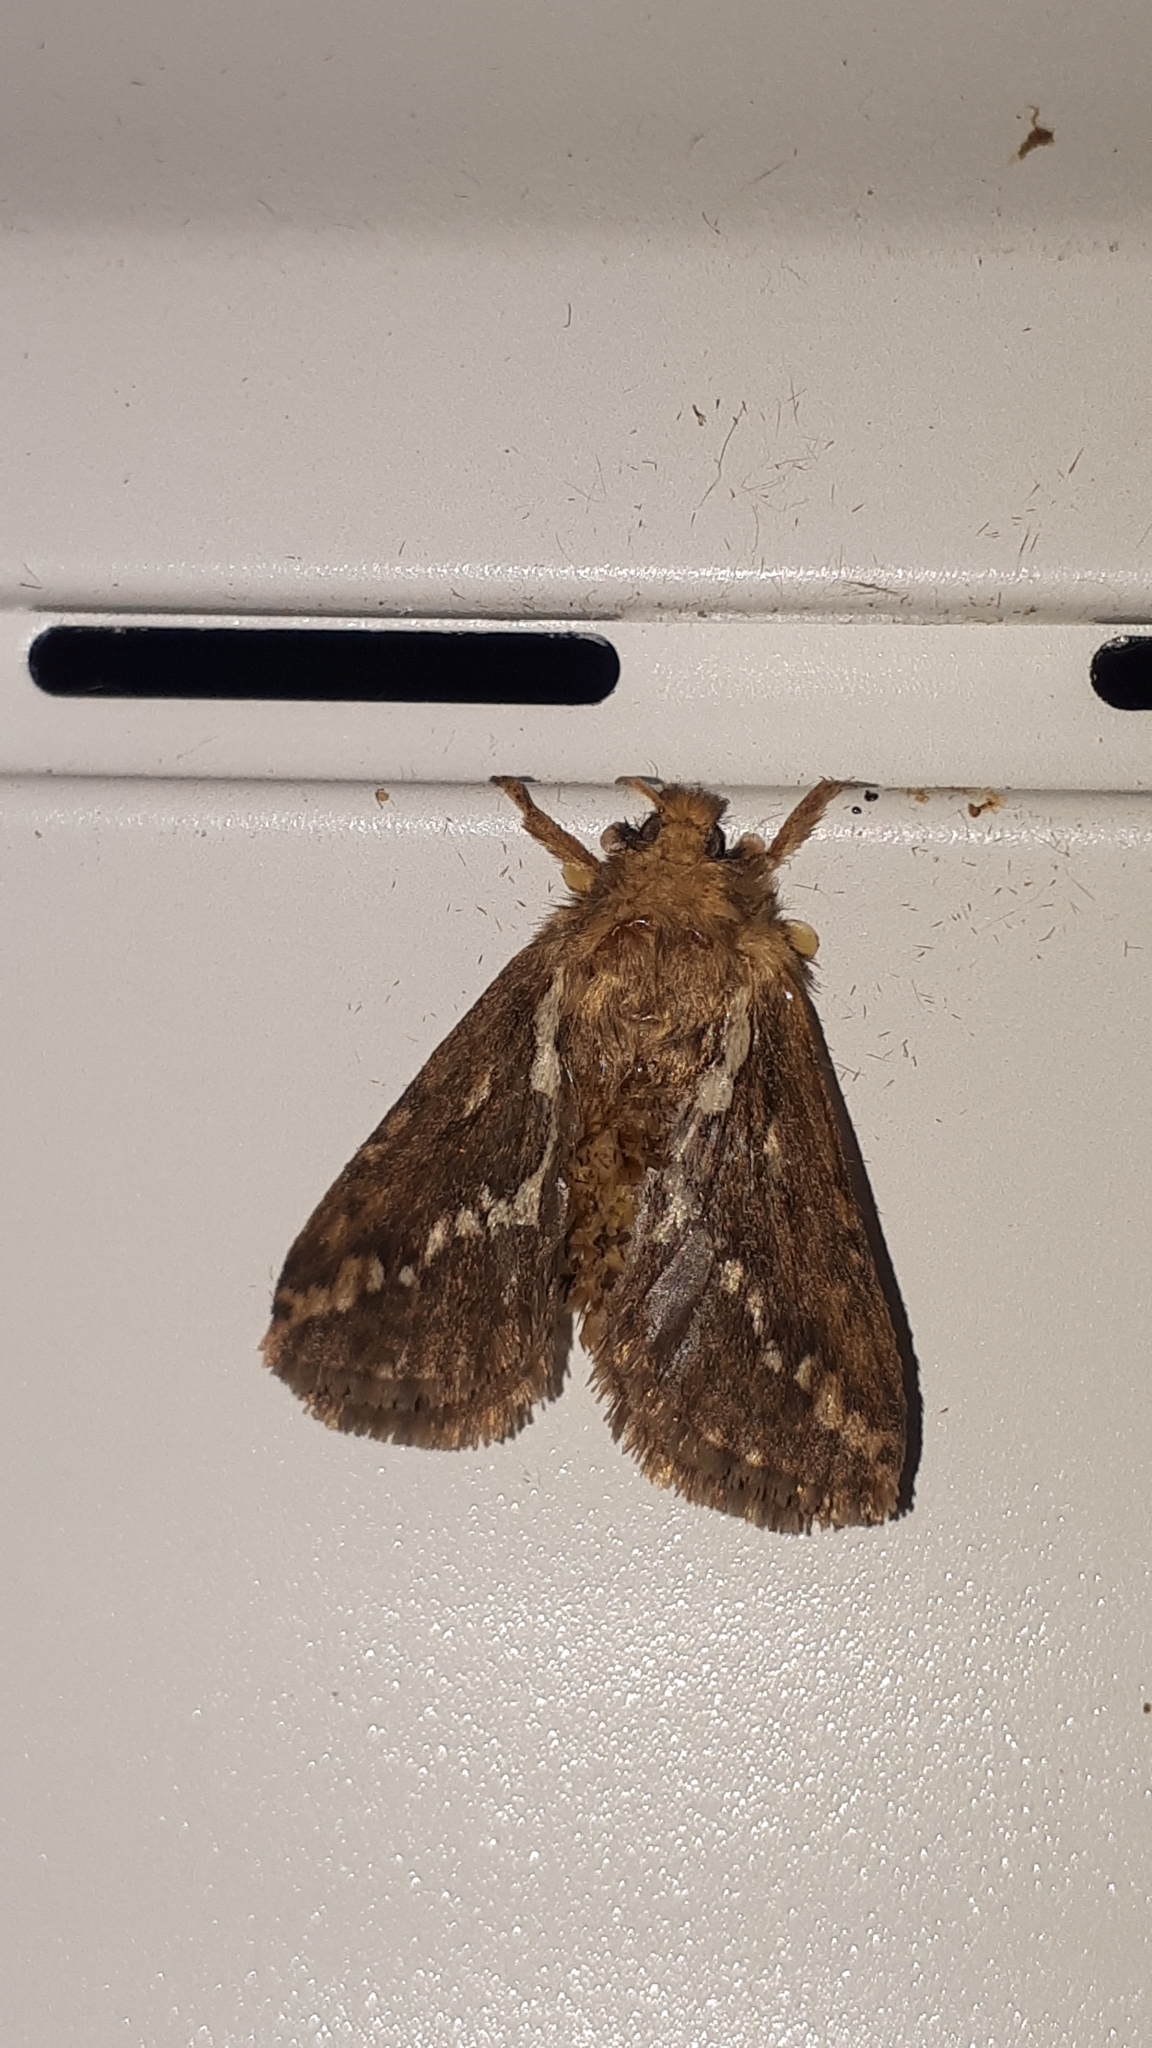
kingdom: Animalia
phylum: Arthropoda
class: Insecta
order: Lepidoptera
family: Hepialidae
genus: Korscheltellus
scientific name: Korscheltellus lupulina
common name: Common swift
